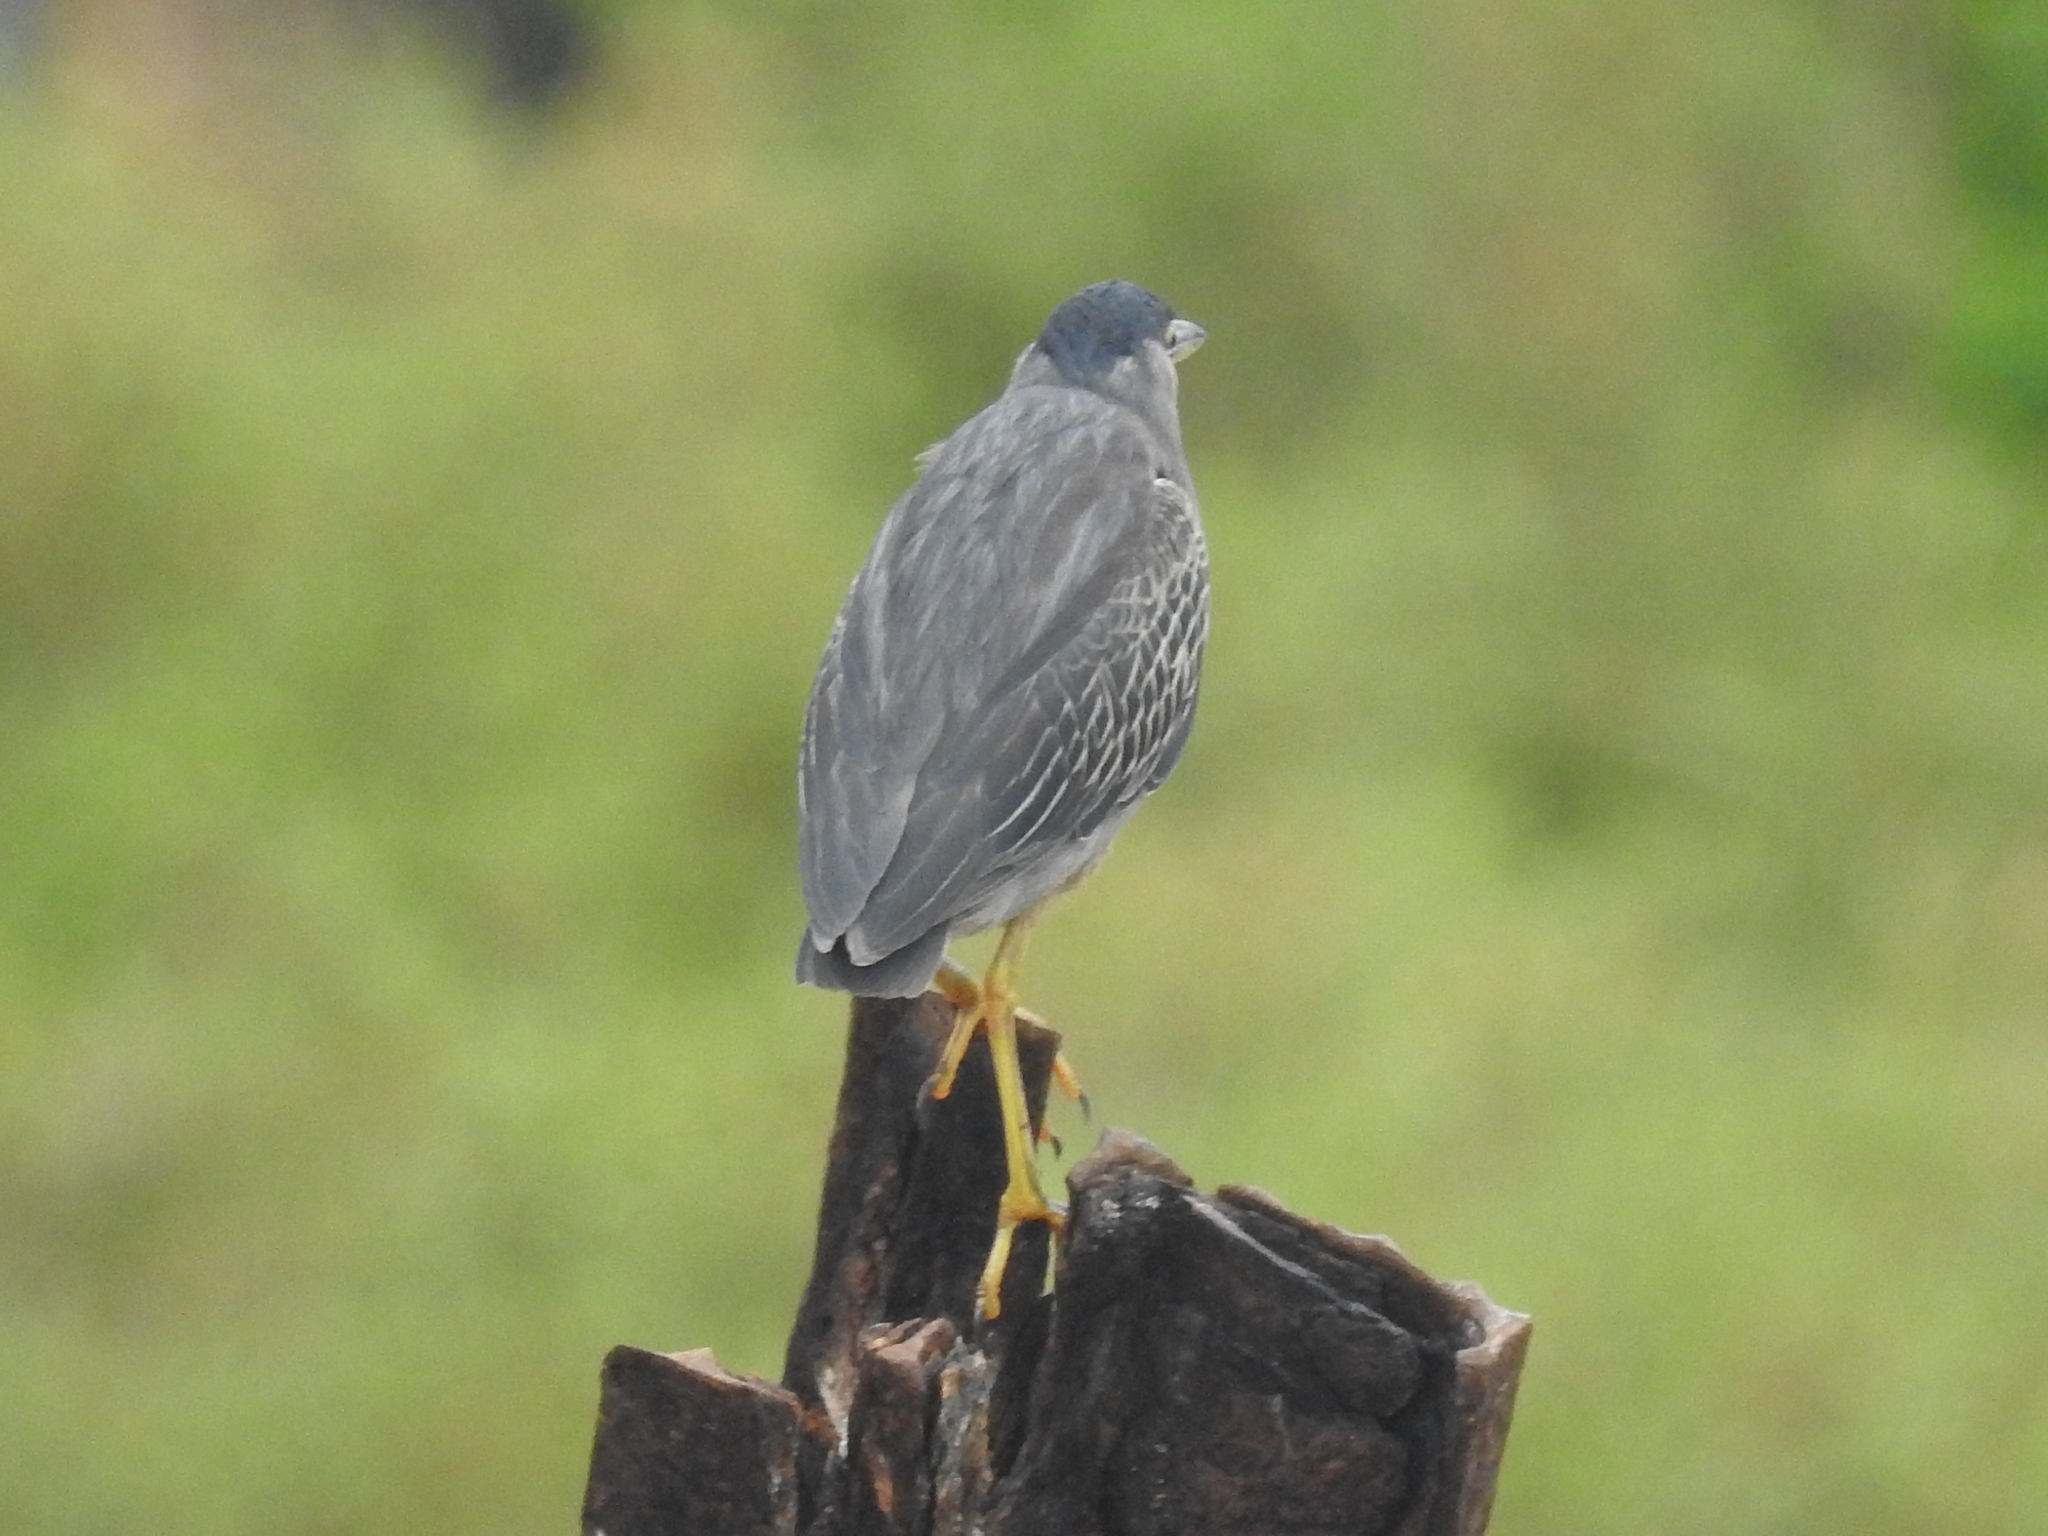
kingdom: Animalia
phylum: Chordata
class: Aves
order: Pelecaniformes
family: Ardeidae
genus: Butorides
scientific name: Butorides striata
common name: Striated heron
